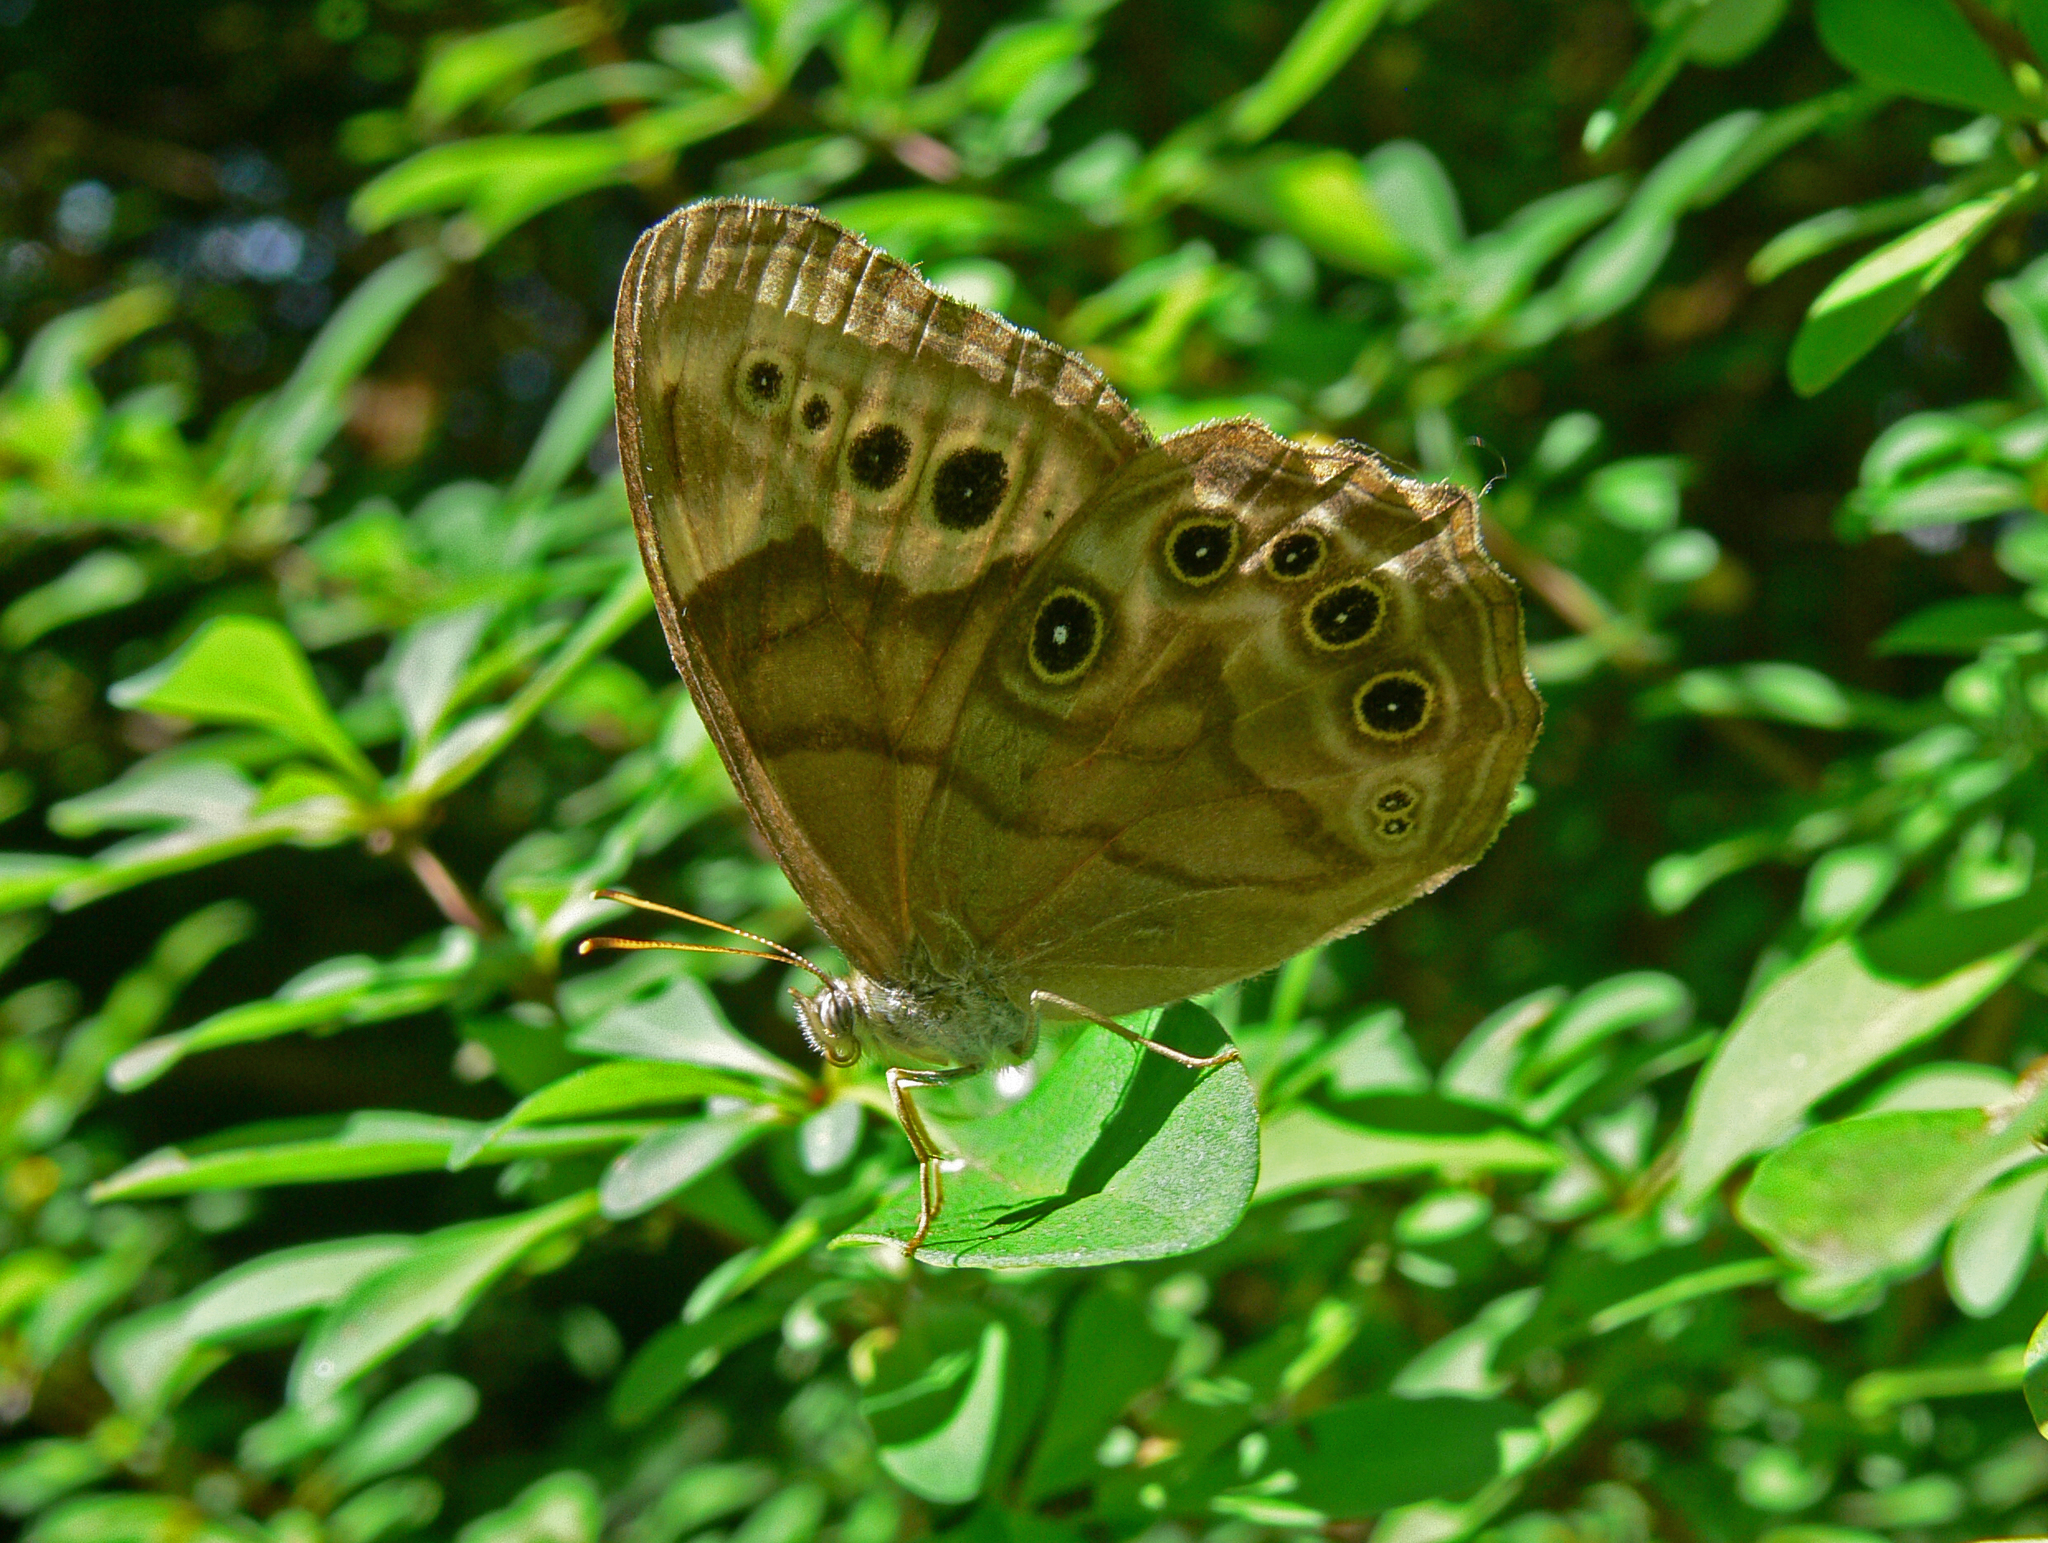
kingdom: Animalia
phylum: Arthropoda
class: Insecta
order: Lepidoptera
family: Nymphalidae
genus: Lethe
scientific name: Lethe anthedon
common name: Northern pearly-eye
